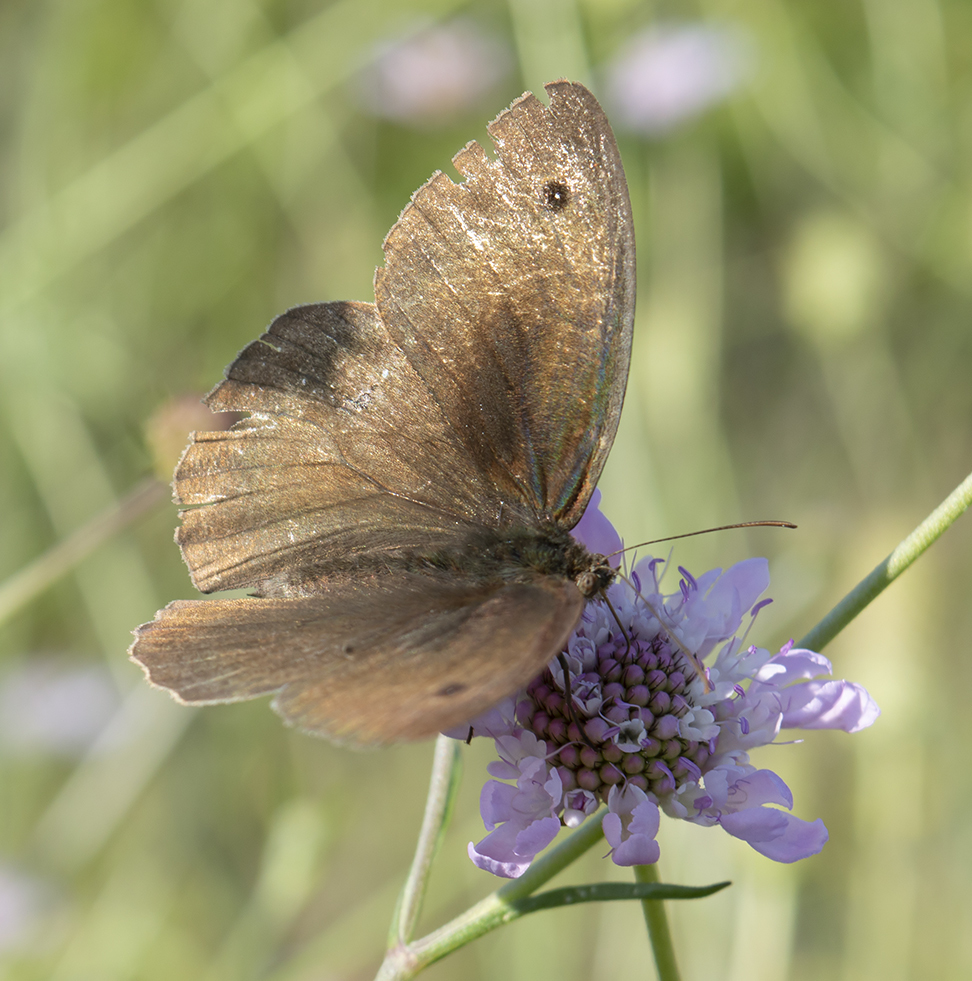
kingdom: Animalia
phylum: Arthropoda
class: Insecta
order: Lepidoptera
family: Nymphalidae
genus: Maniola
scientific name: Maniola jurtina
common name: Meadow brown
